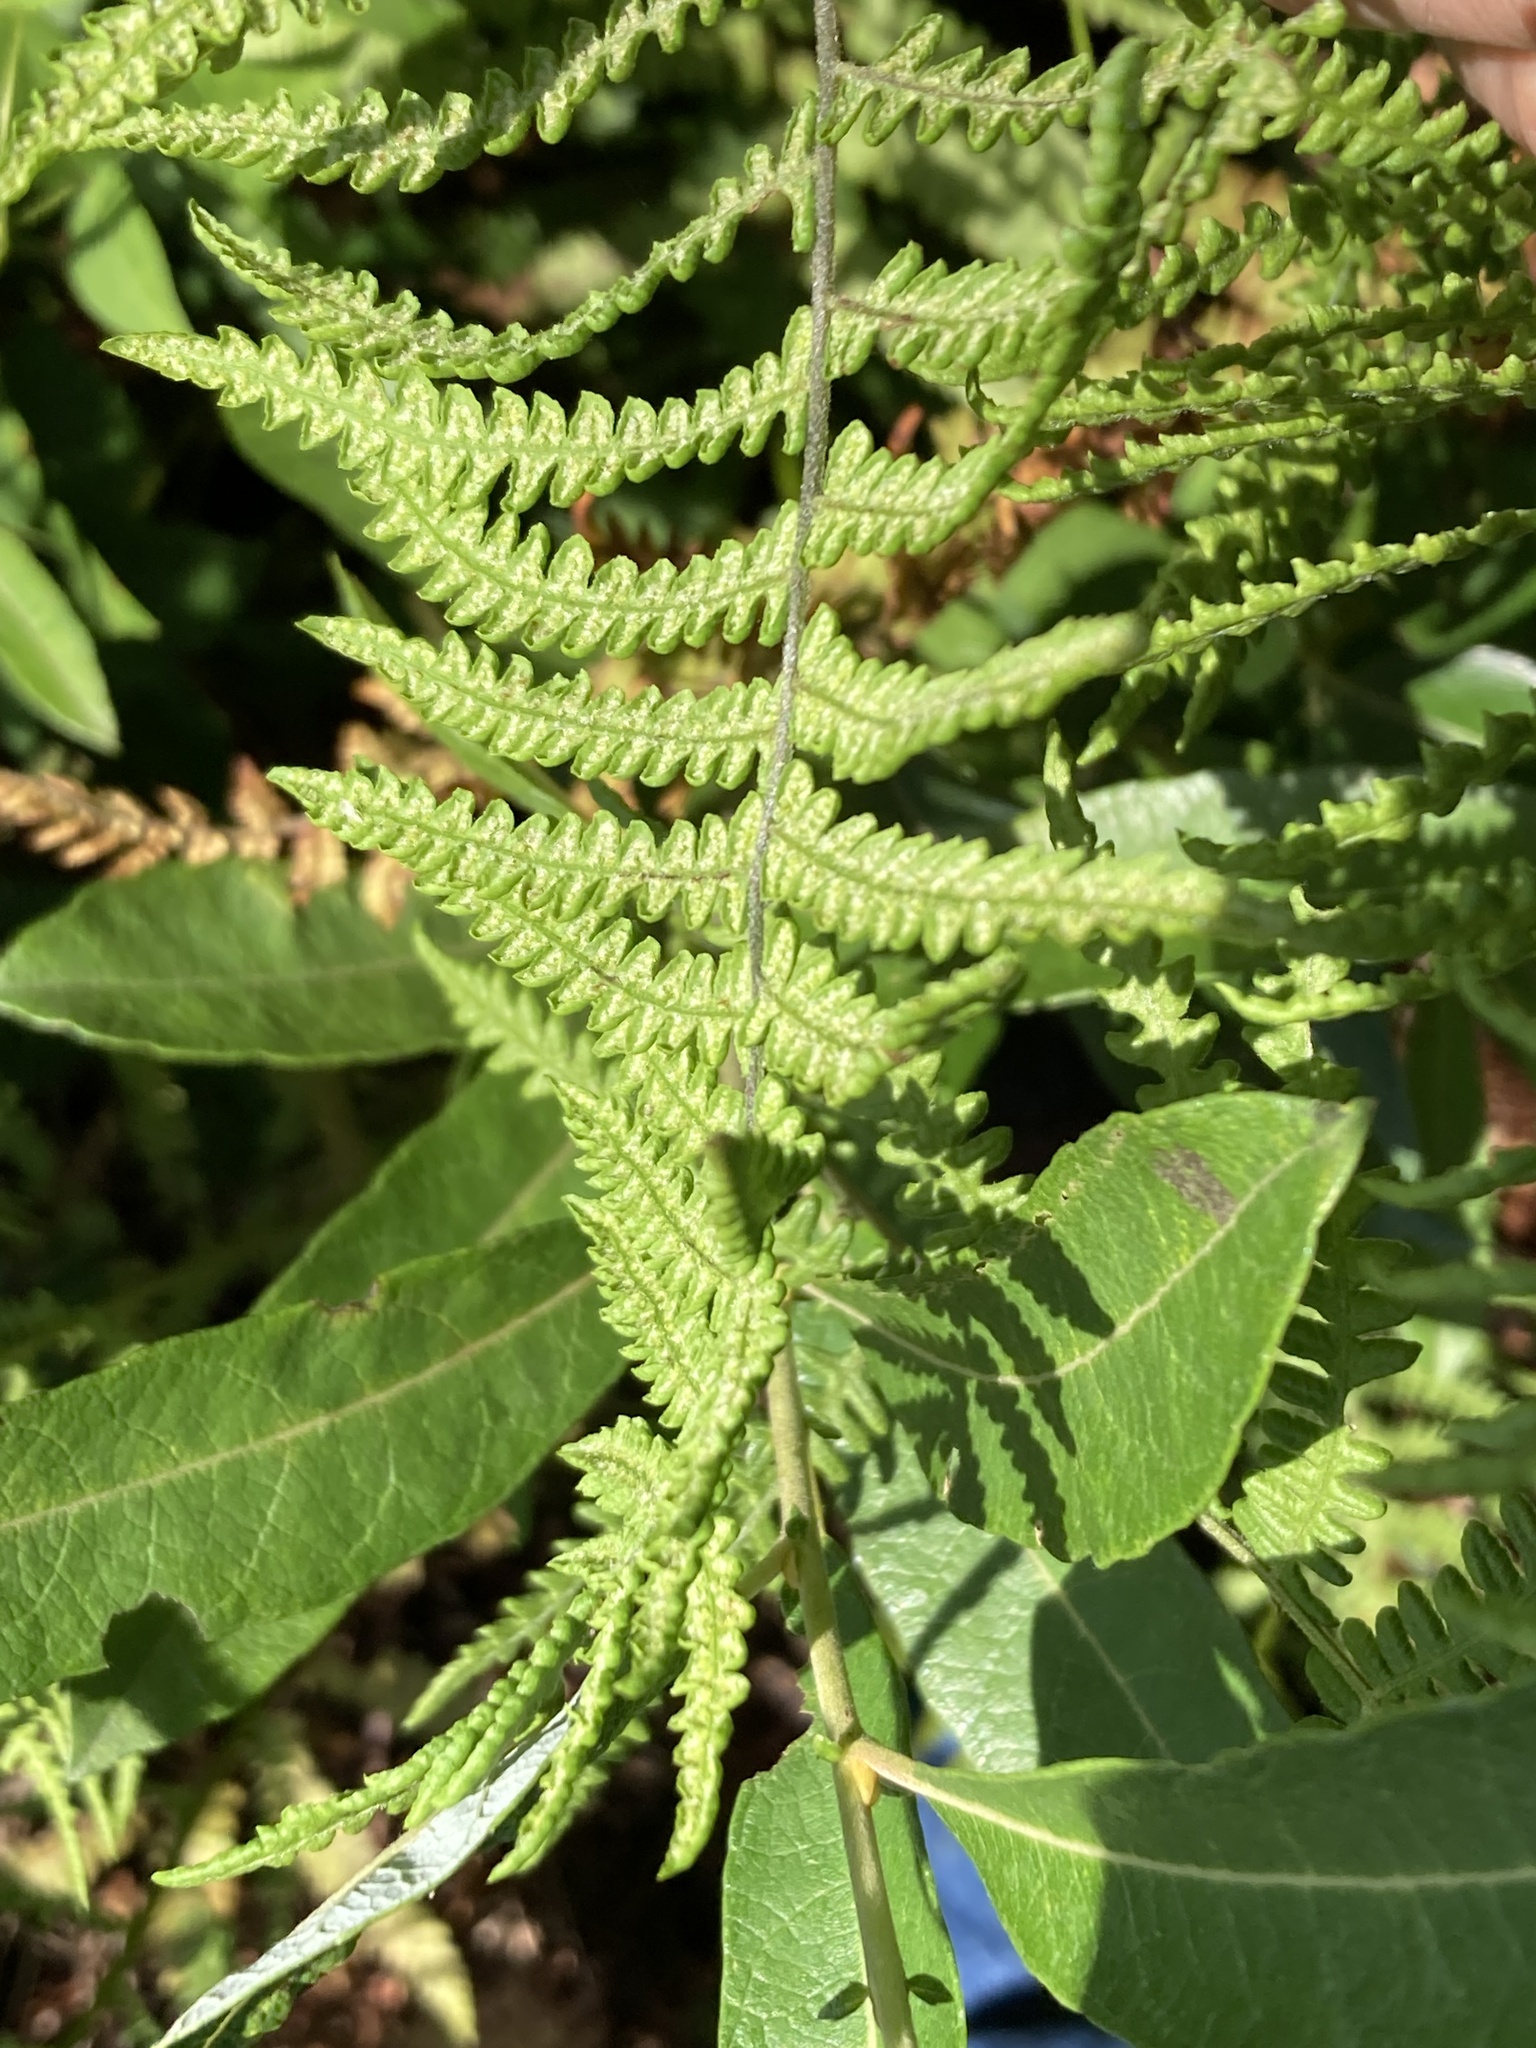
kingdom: Plantae
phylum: Tracheophyta
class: Polypodiopsida
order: Polypodiales
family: Thelypteridaceae
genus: Thelypteris
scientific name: Thelypteris palustris
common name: Marsh fern
